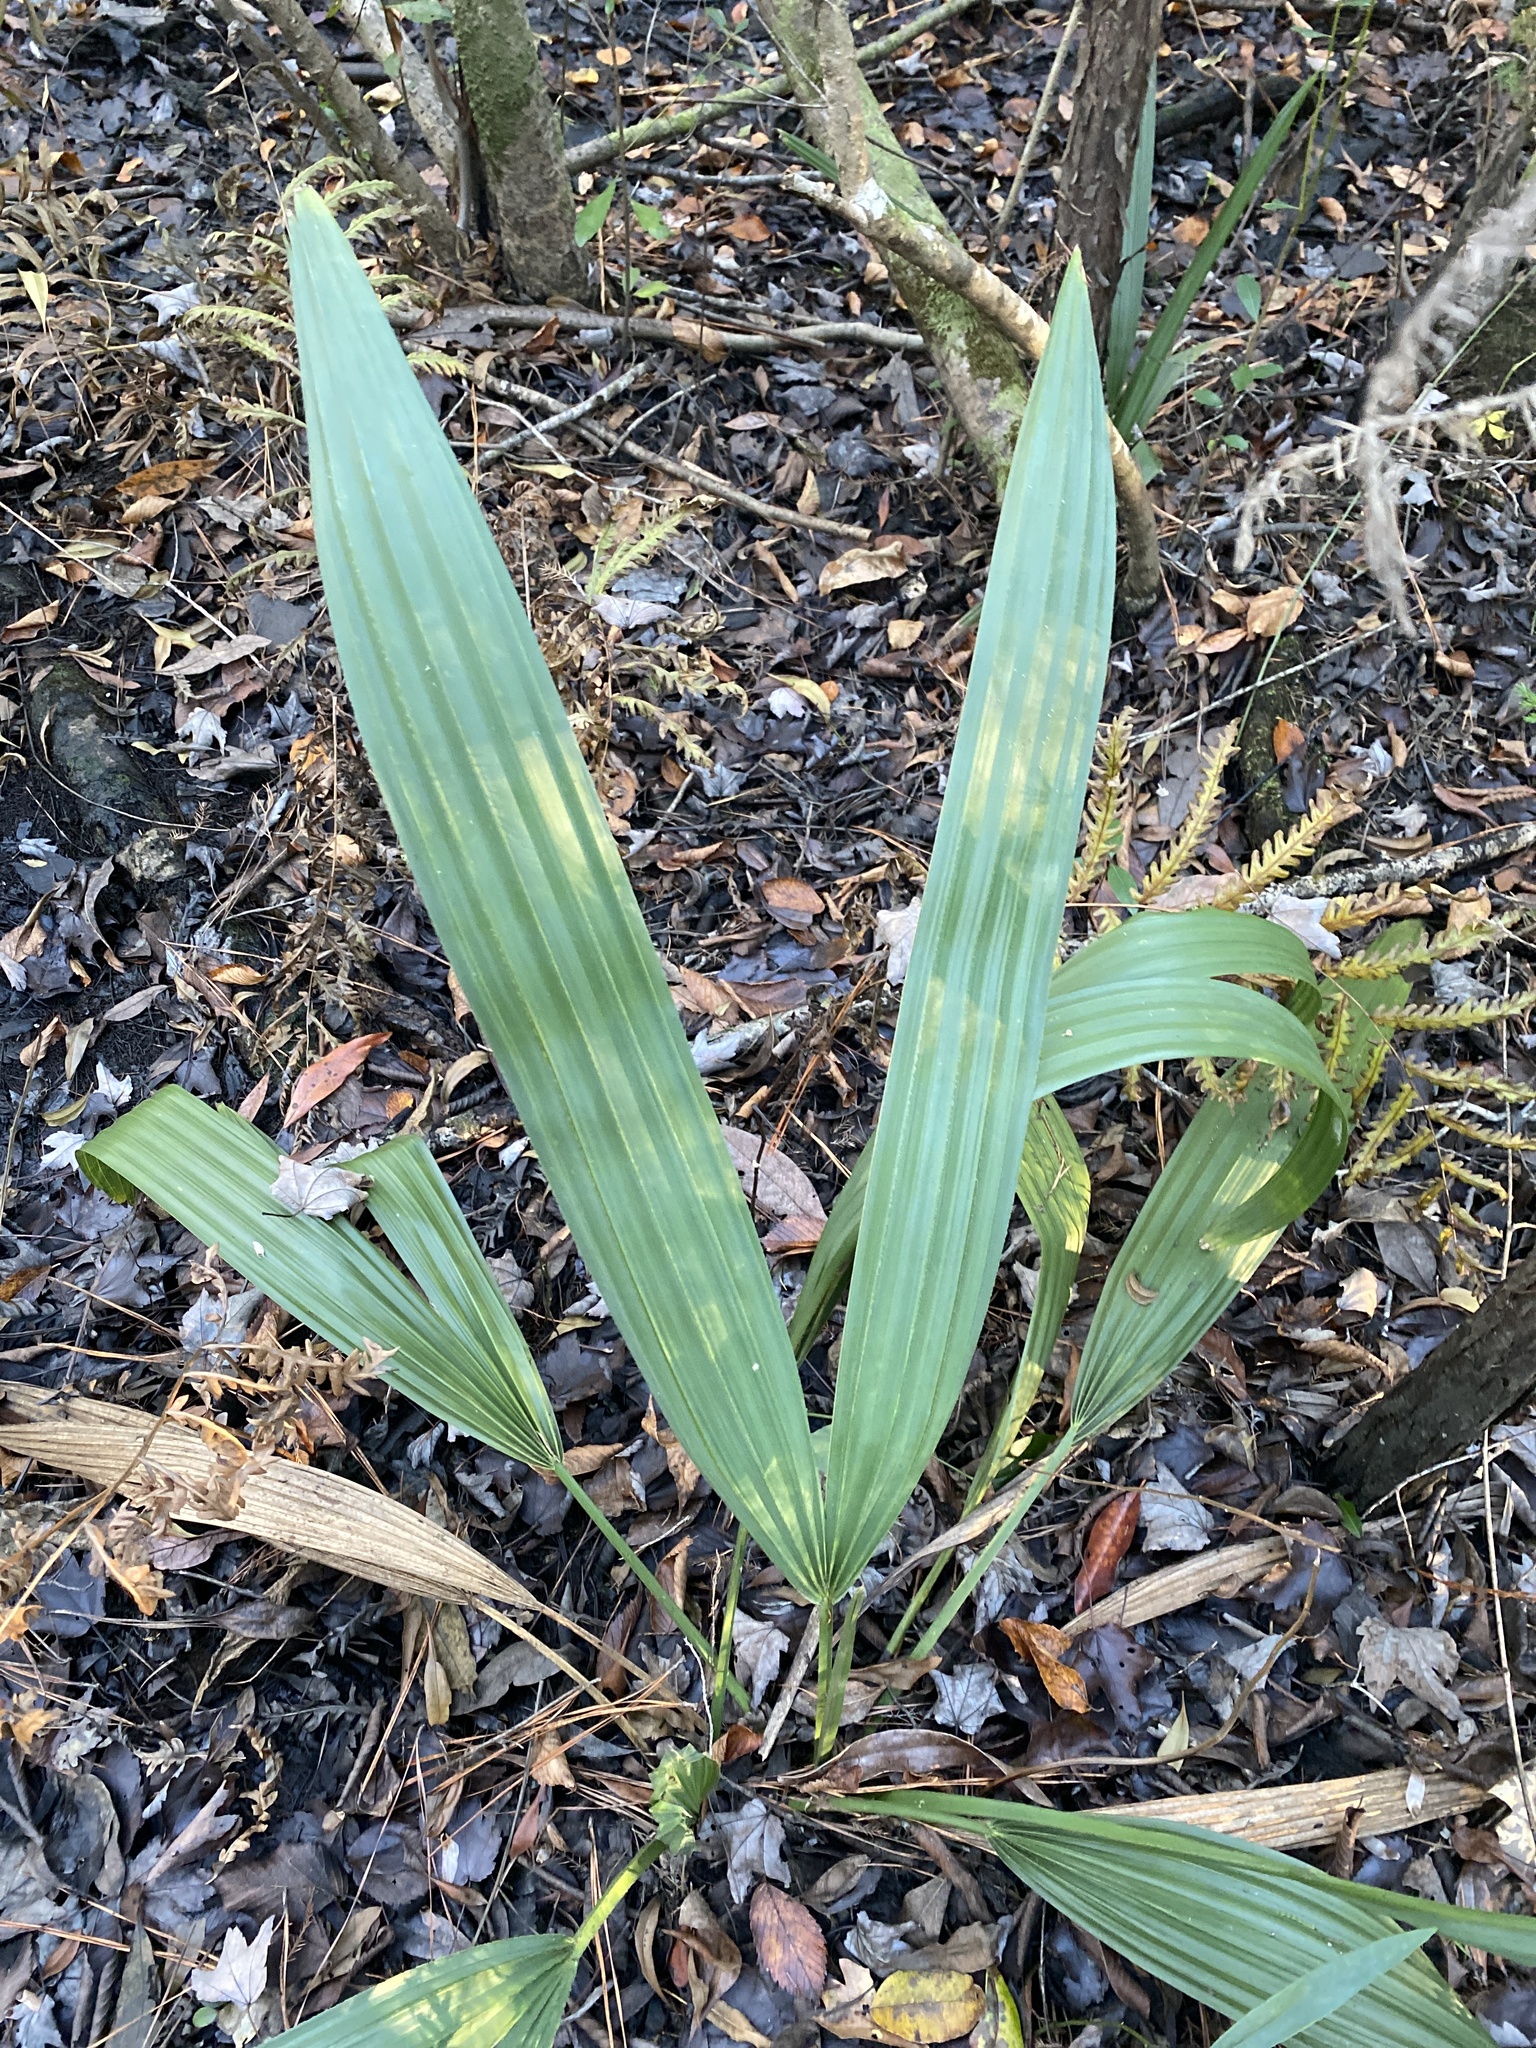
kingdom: Plantae
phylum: Tracheophyta
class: Liliopsida
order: Arecales
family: Arecaceae
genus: Sabal
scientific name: Sabal minor
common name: Dwarf palmetto
